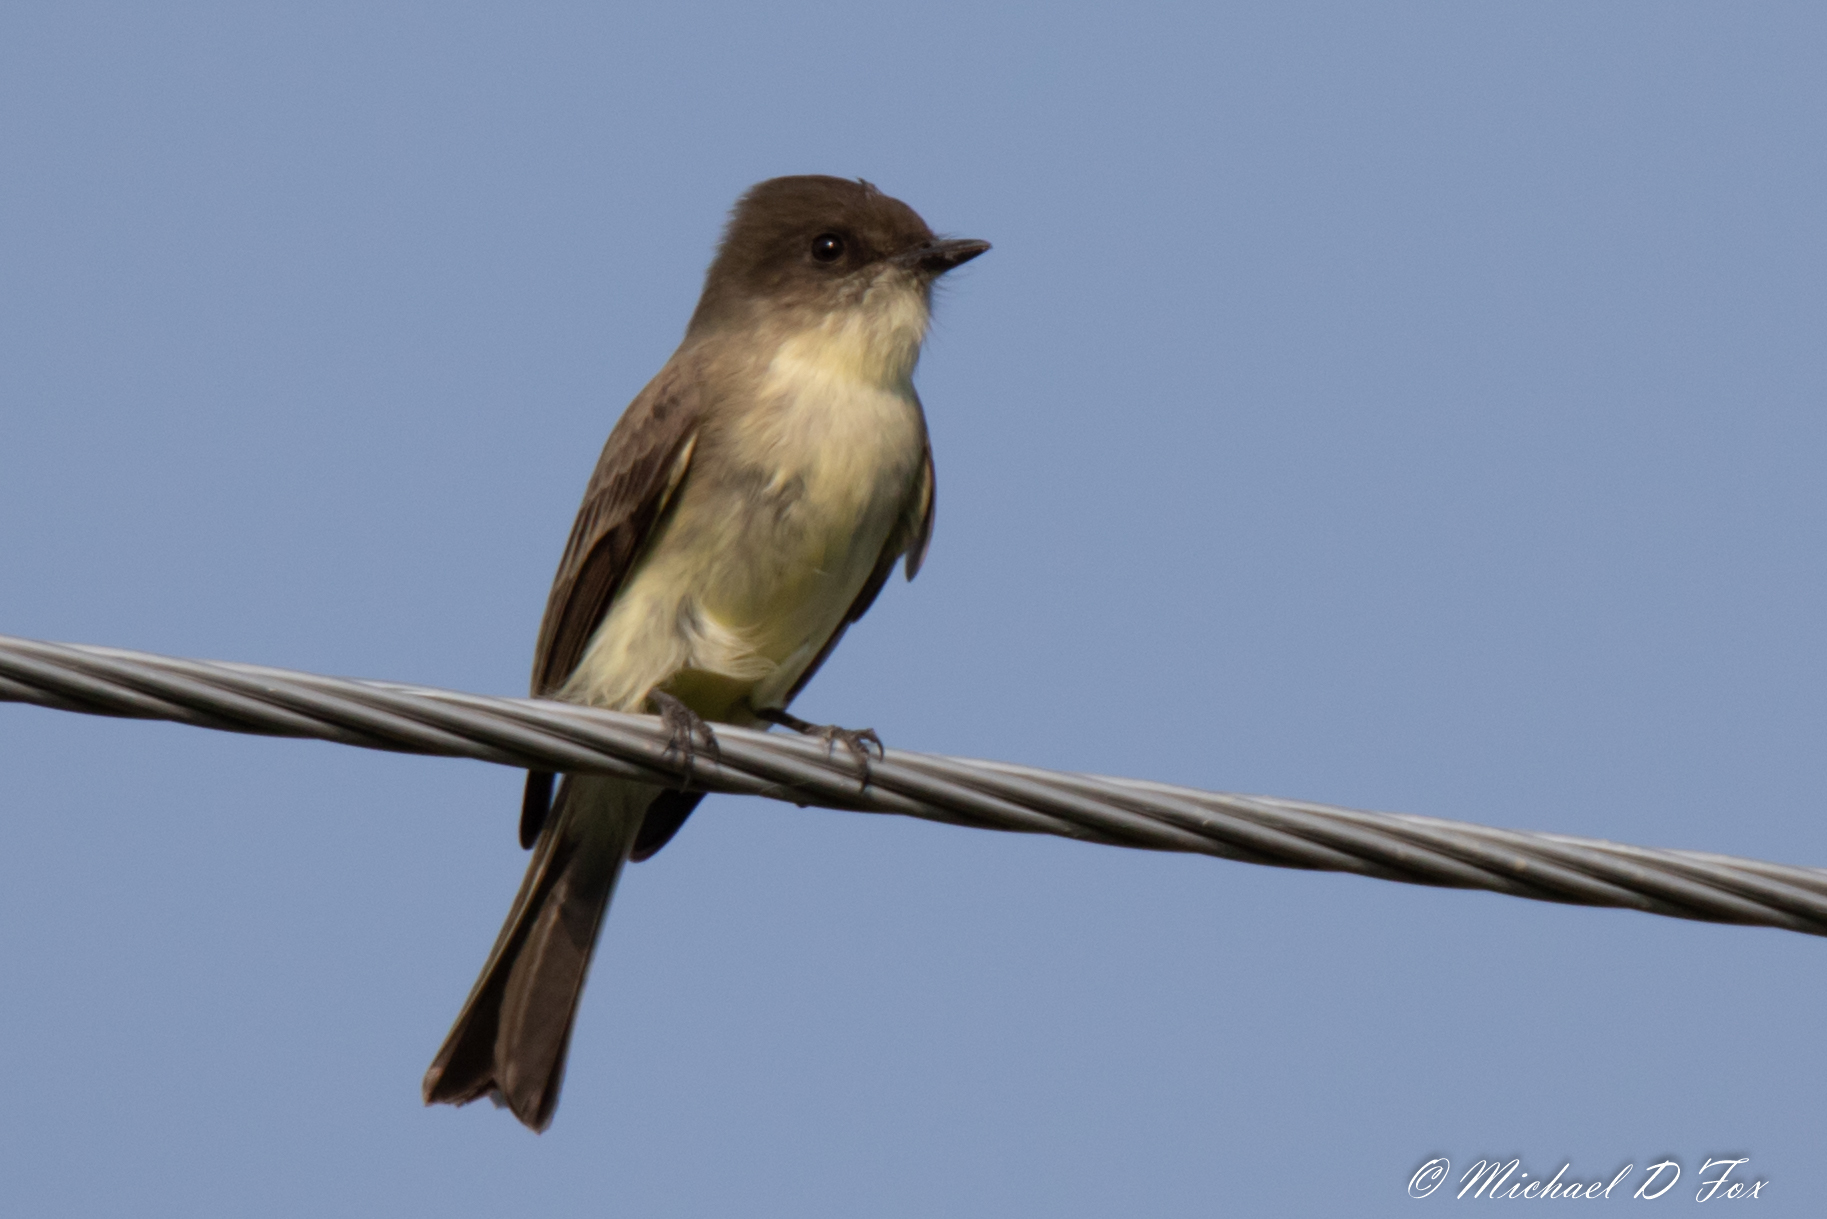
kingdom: Animalia
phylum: Chordata
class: Aves
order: Passeriformes
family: Tyrannidae
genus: Sayornis
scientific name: Sayornis phoebe
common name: Eastern phoebe
